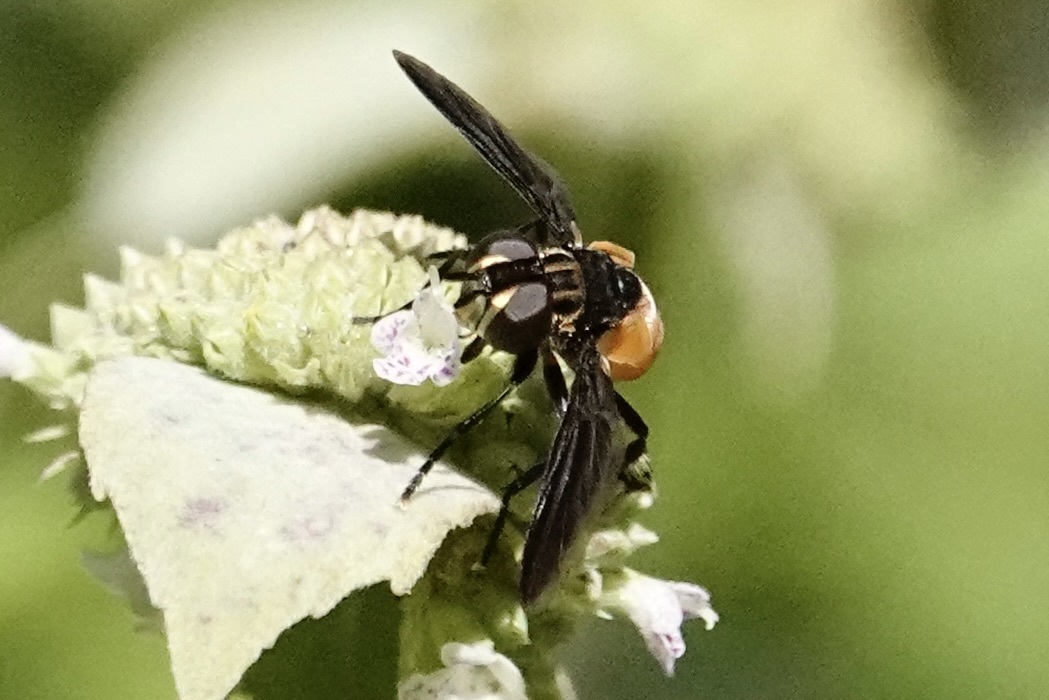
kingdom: Animalia
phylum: Arthropoda
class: Insecta
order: Diptera
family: Tachinidae
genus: Trichopoda
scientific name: Trichopoda pennipes
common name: Tachinid fly
